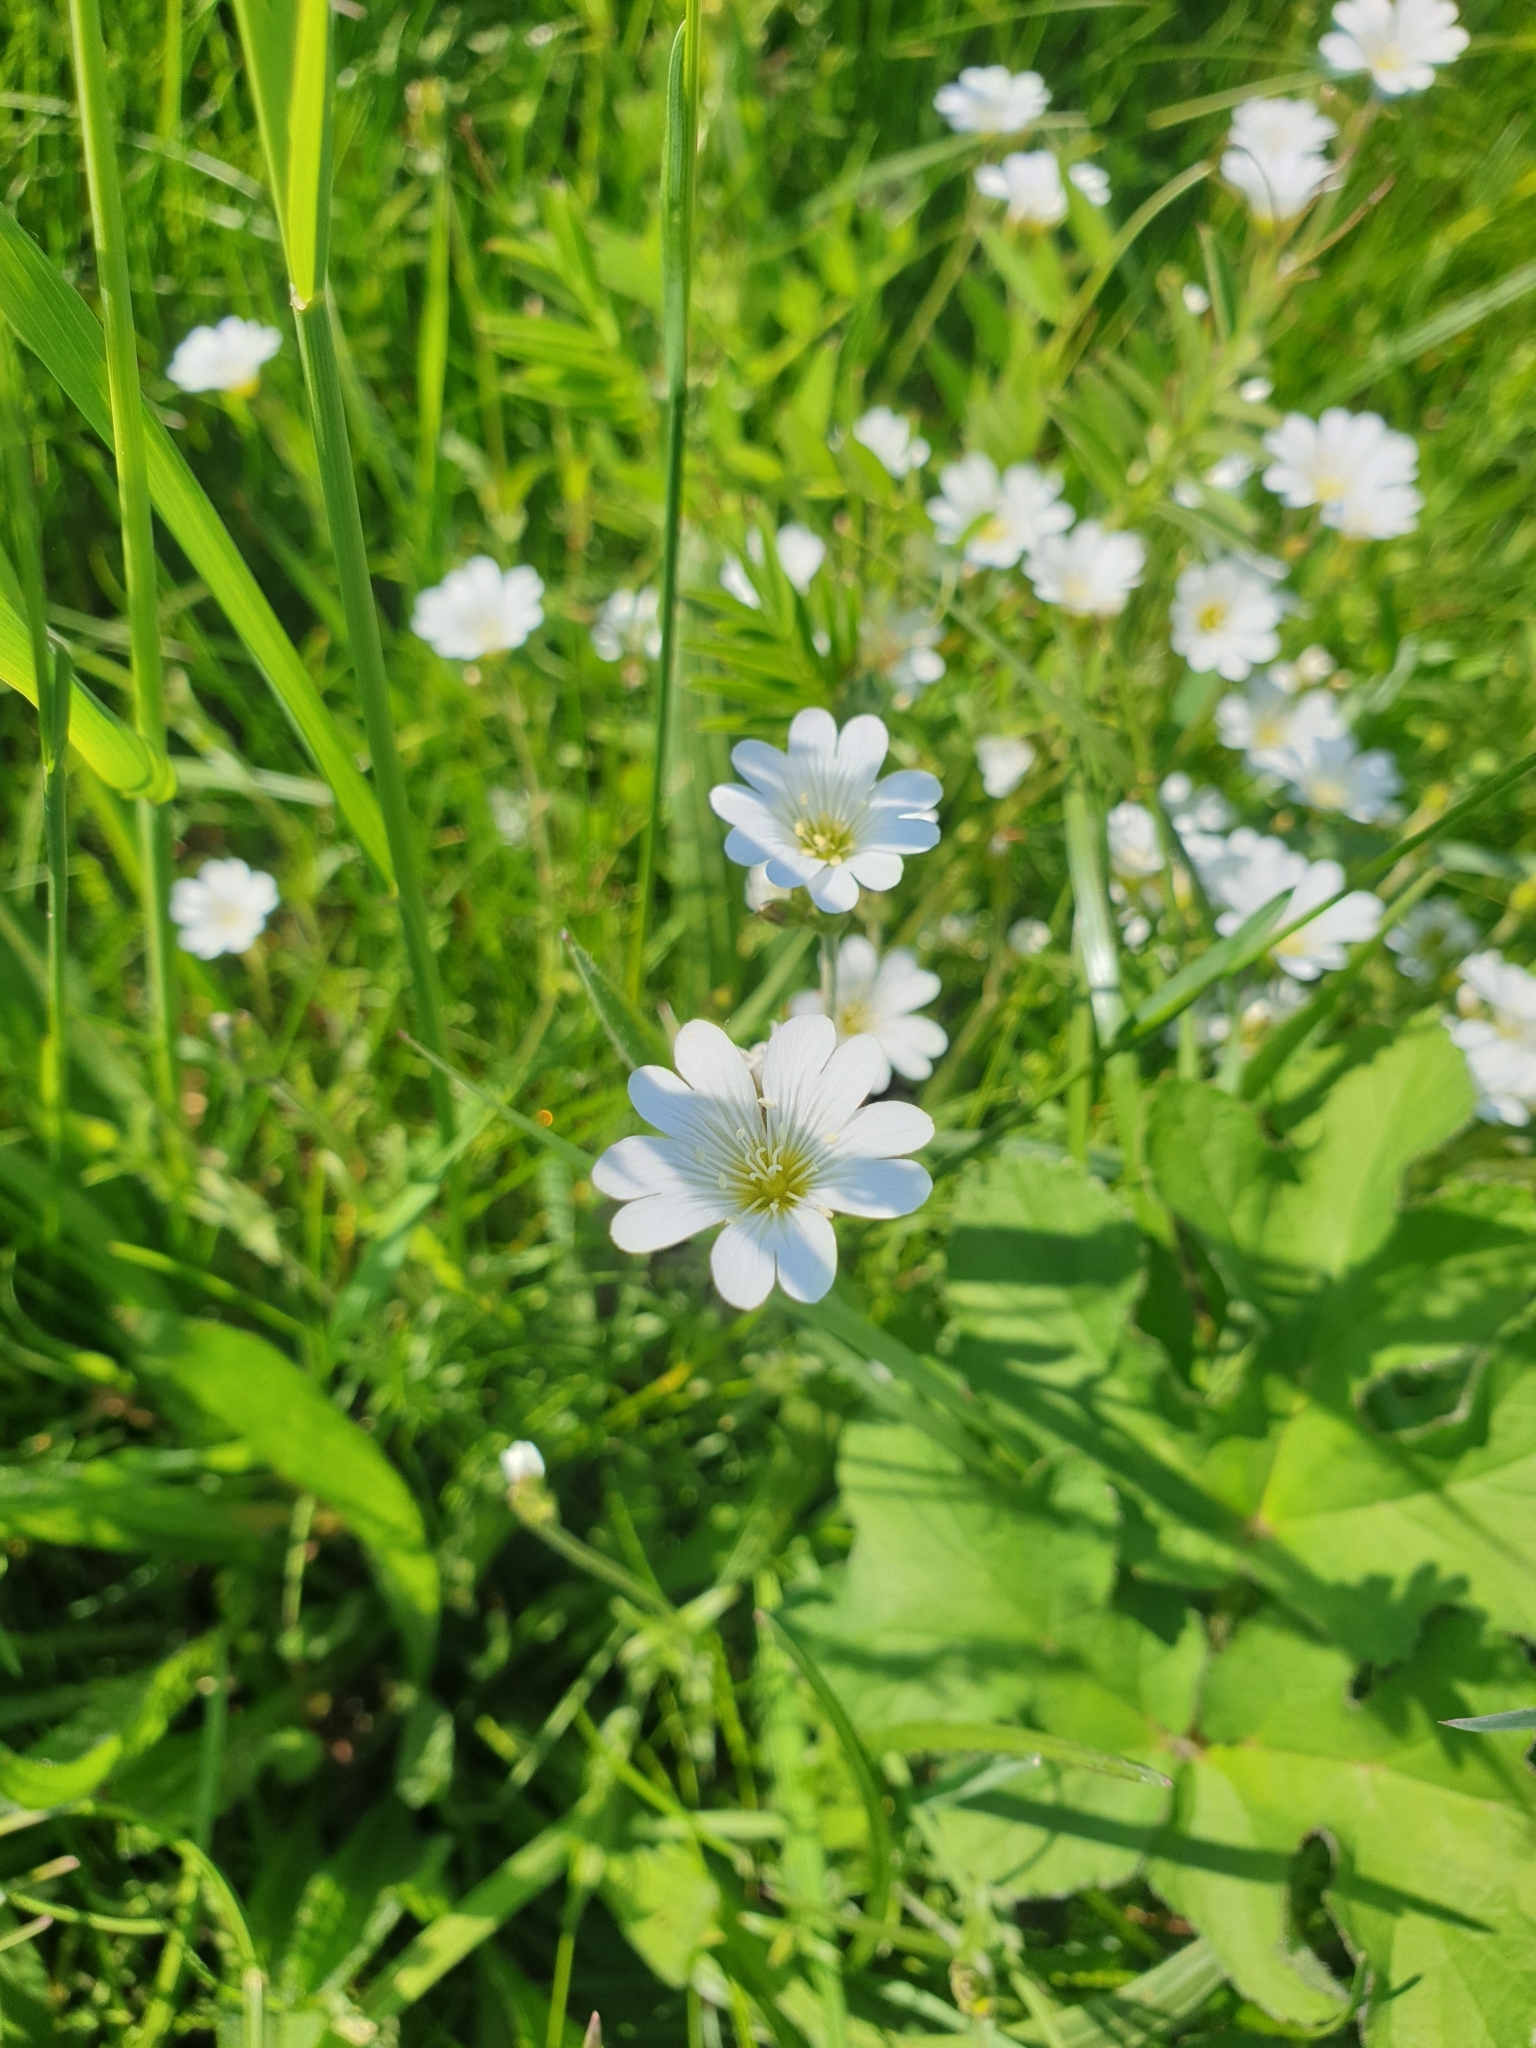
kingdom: Plantae
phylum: Tracheophyta
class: Magnoliopsida
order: Caryophyllales
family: Caryophyllaceae
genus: Cerastium
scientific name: Cerastium arvense
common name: Field mouse-ear
